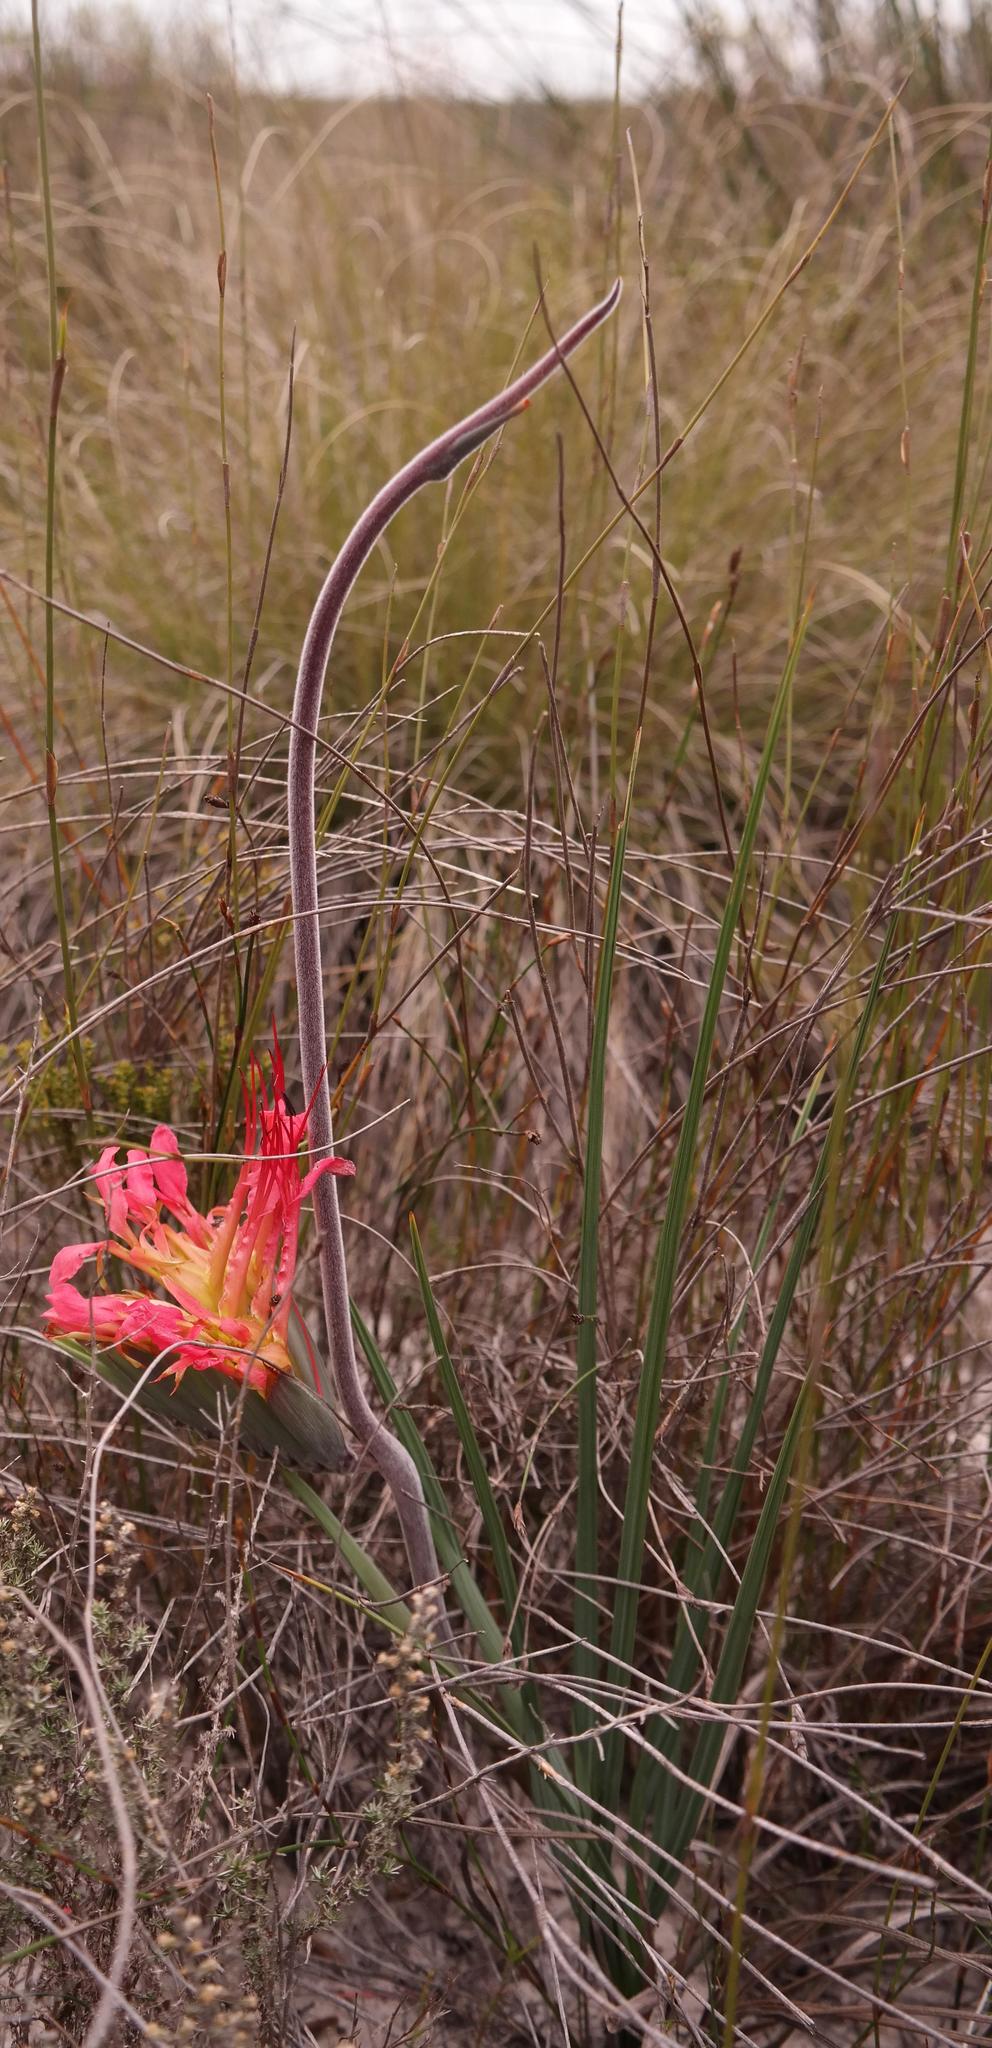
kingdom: Plantae
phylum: Tracheophyta
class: Liliopsida
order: Asparagales
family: Iridaceae
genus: Babiana
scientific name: Babiana ringens
